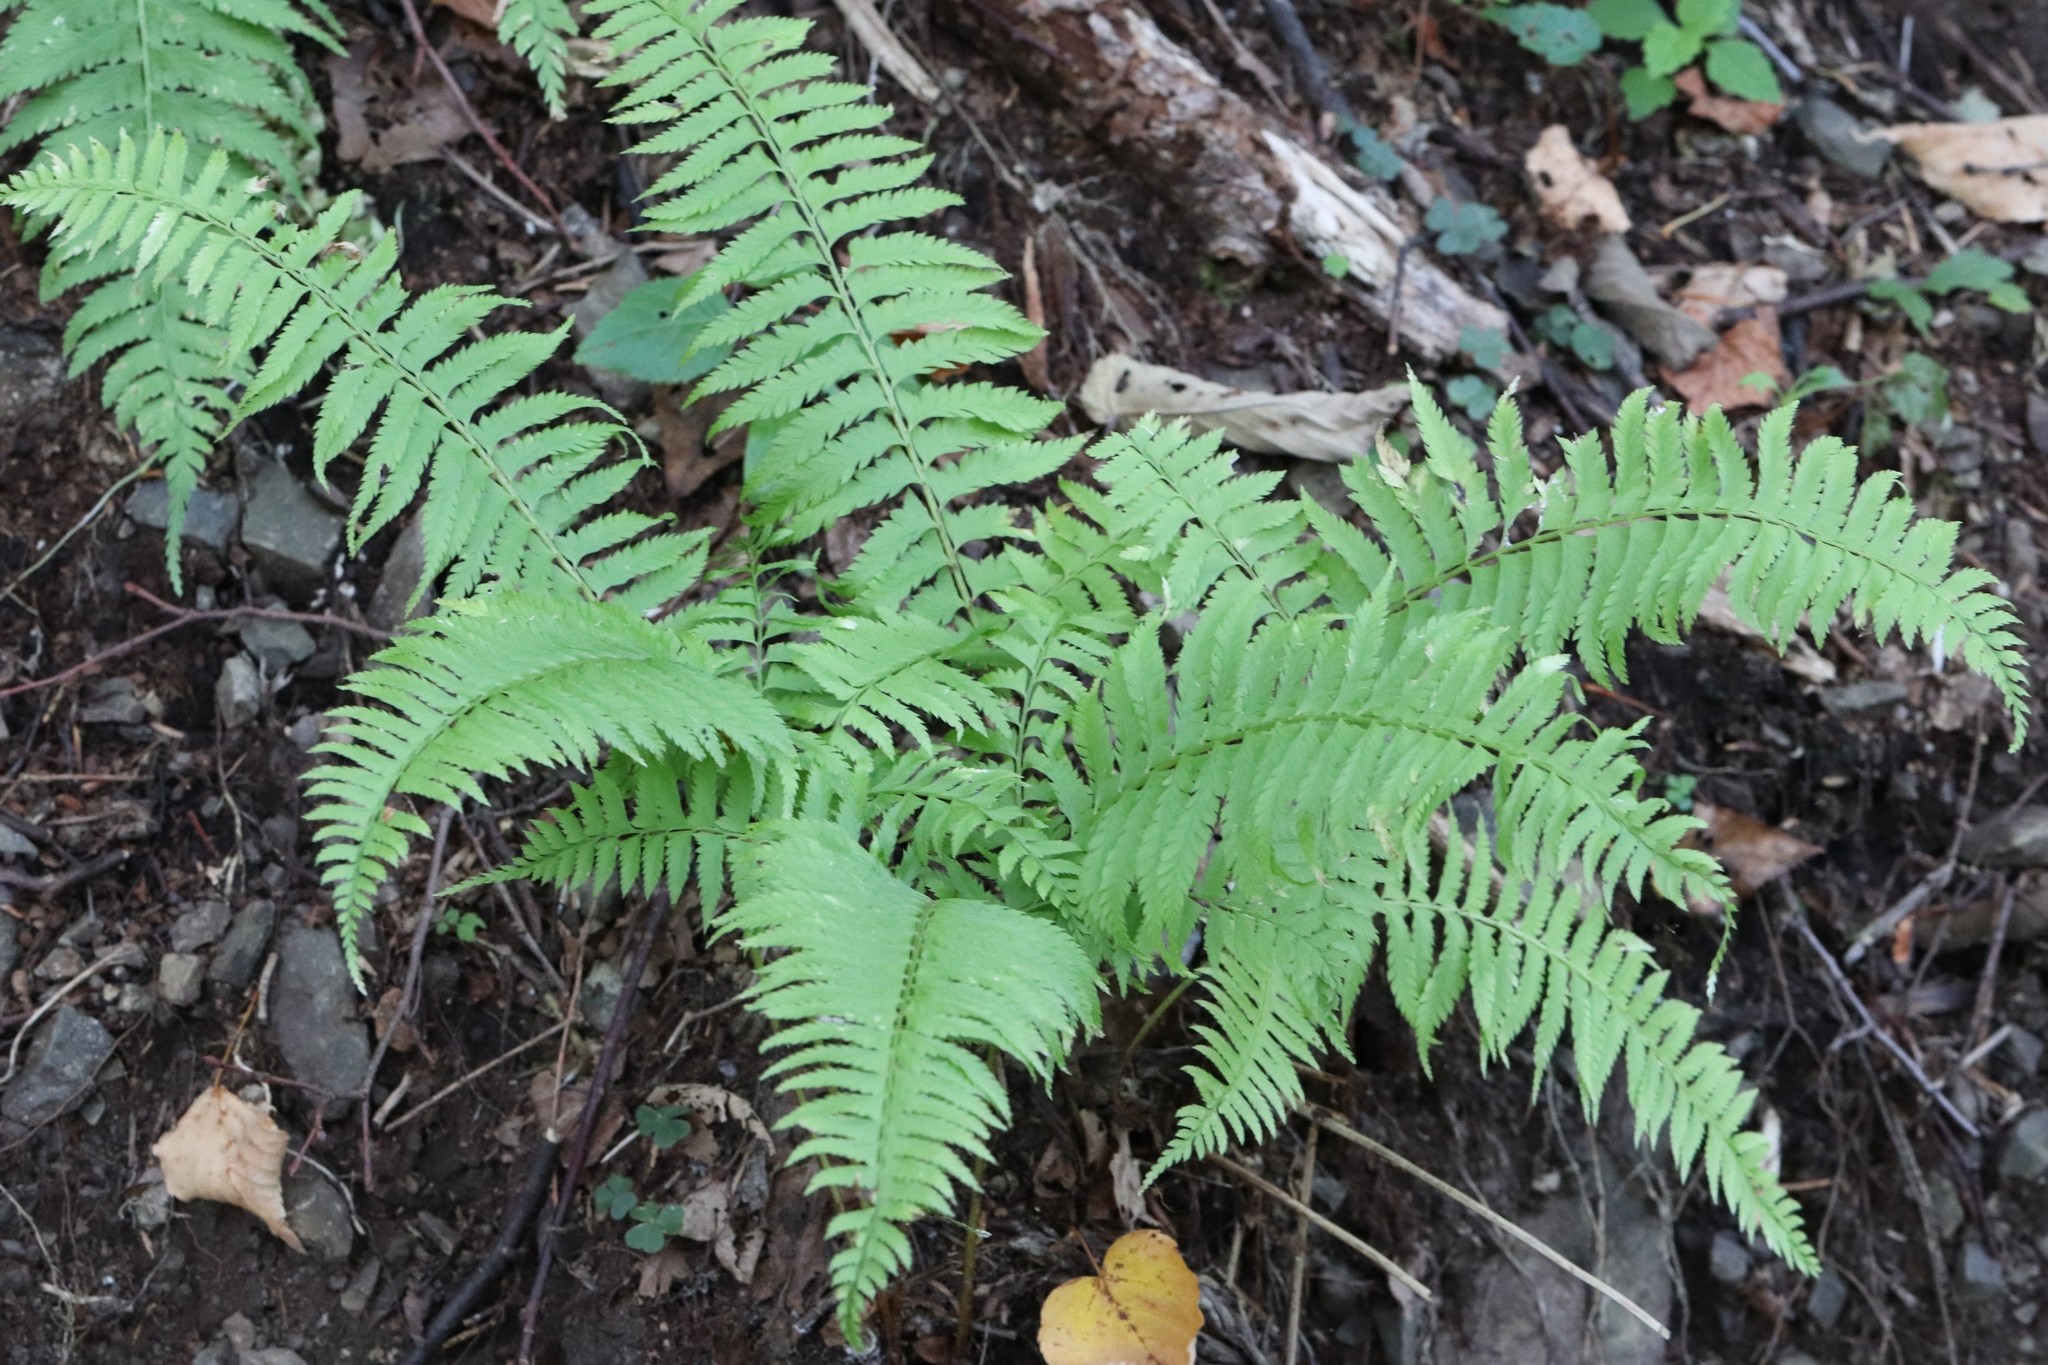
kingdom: Plantae
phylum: Tracheophyta
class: Polypodiopsida
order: Polypodiales
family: Dryopteridaceae
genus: Polystichum
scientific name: Polystichum tripteron
